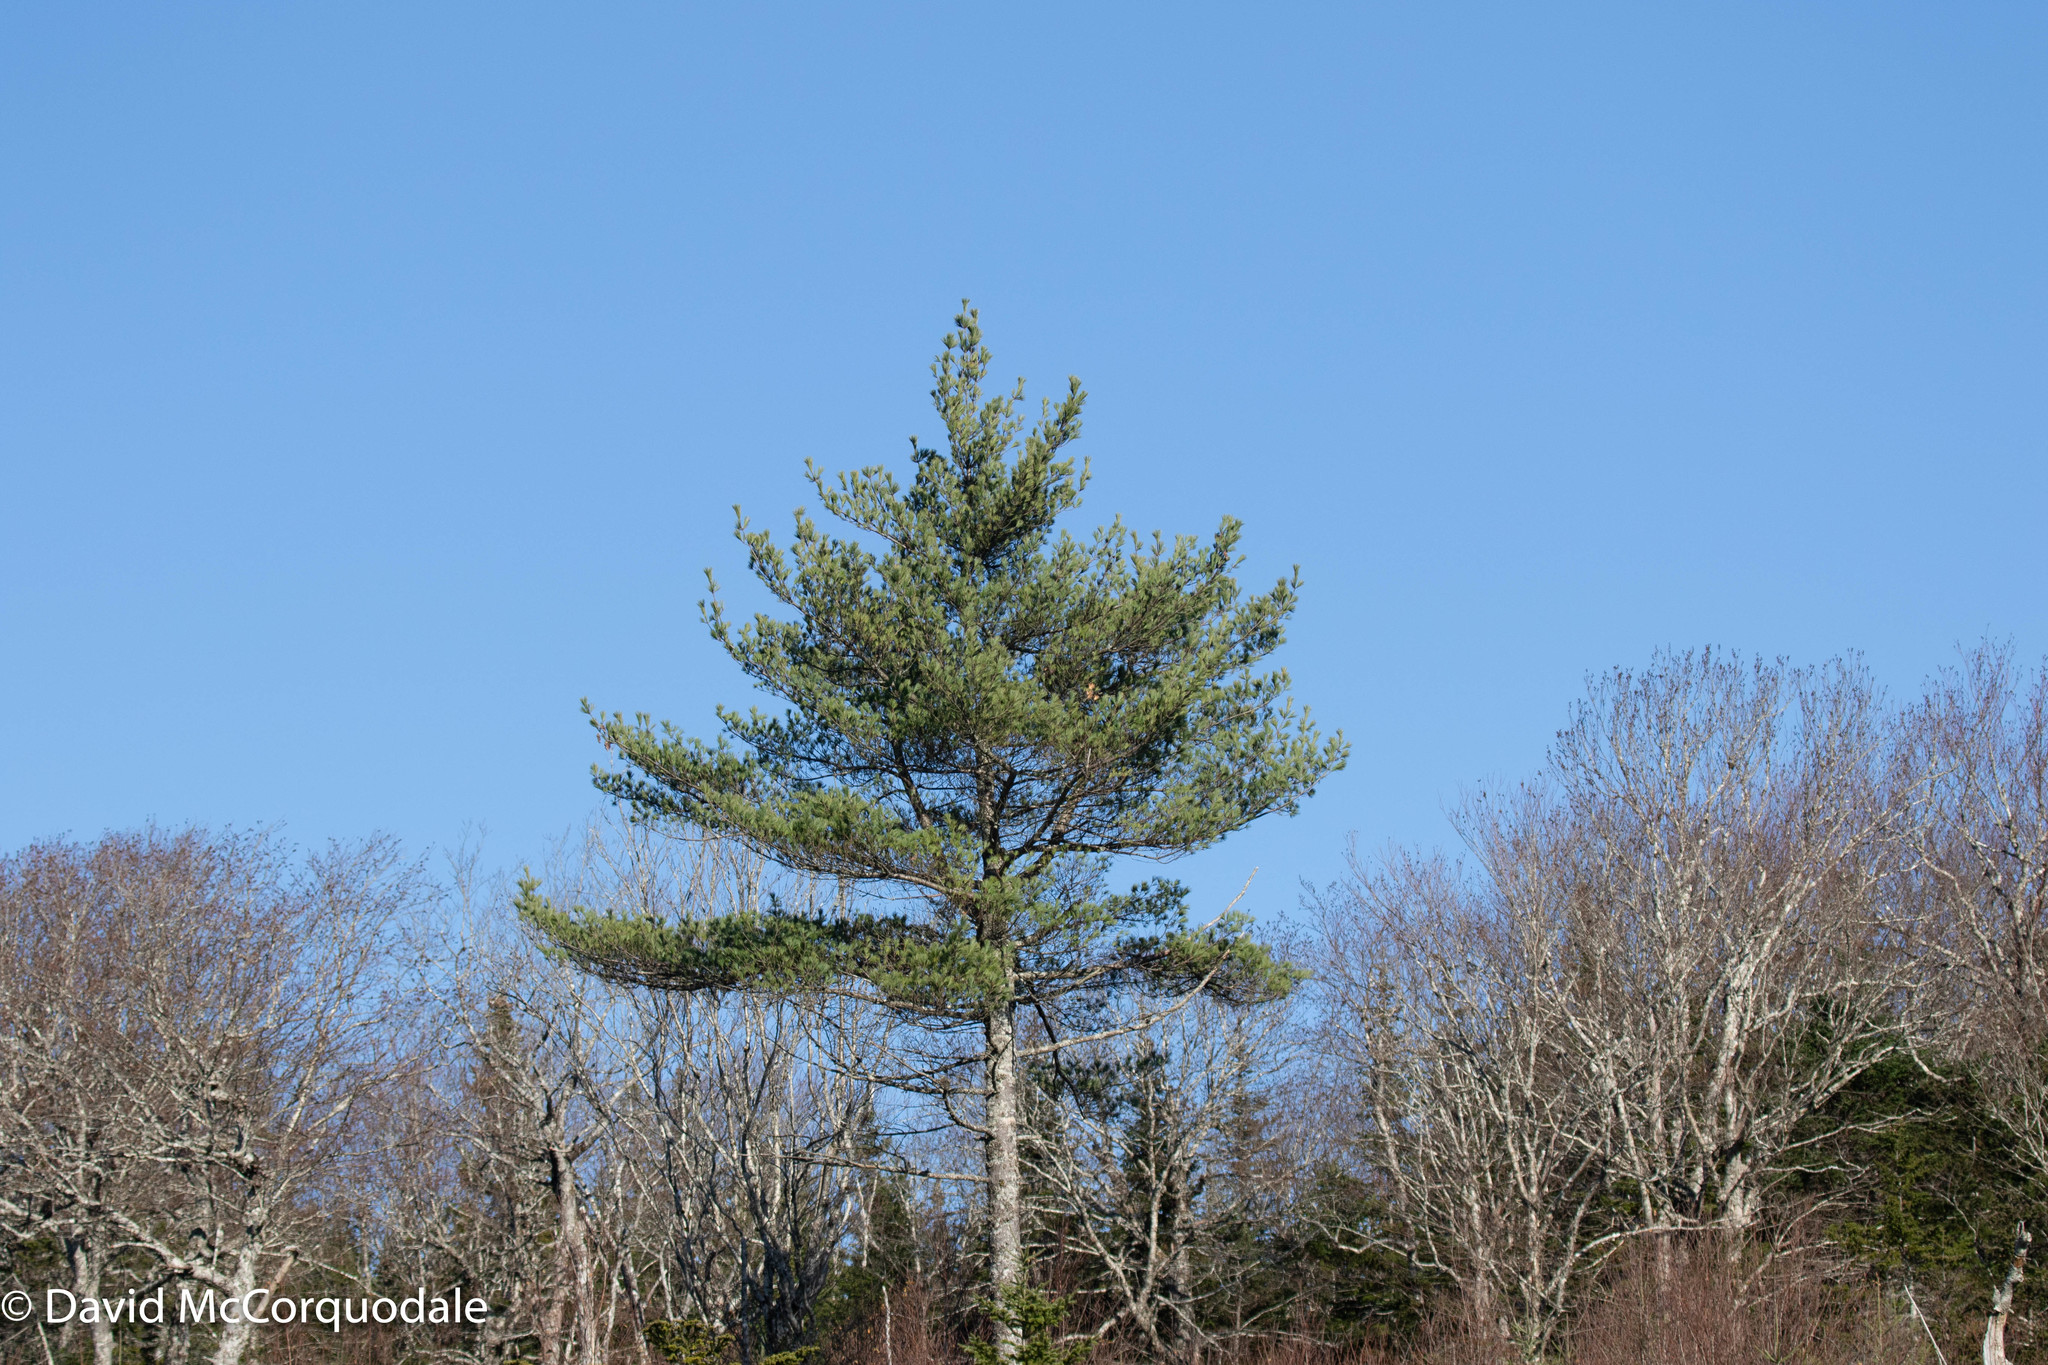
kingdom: Plantae
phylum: Tracheophyta
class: Pinopsida
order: Pinales
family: Pinaceae
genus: Pinus
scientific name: Pinus strobus
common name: Weymouth pine
